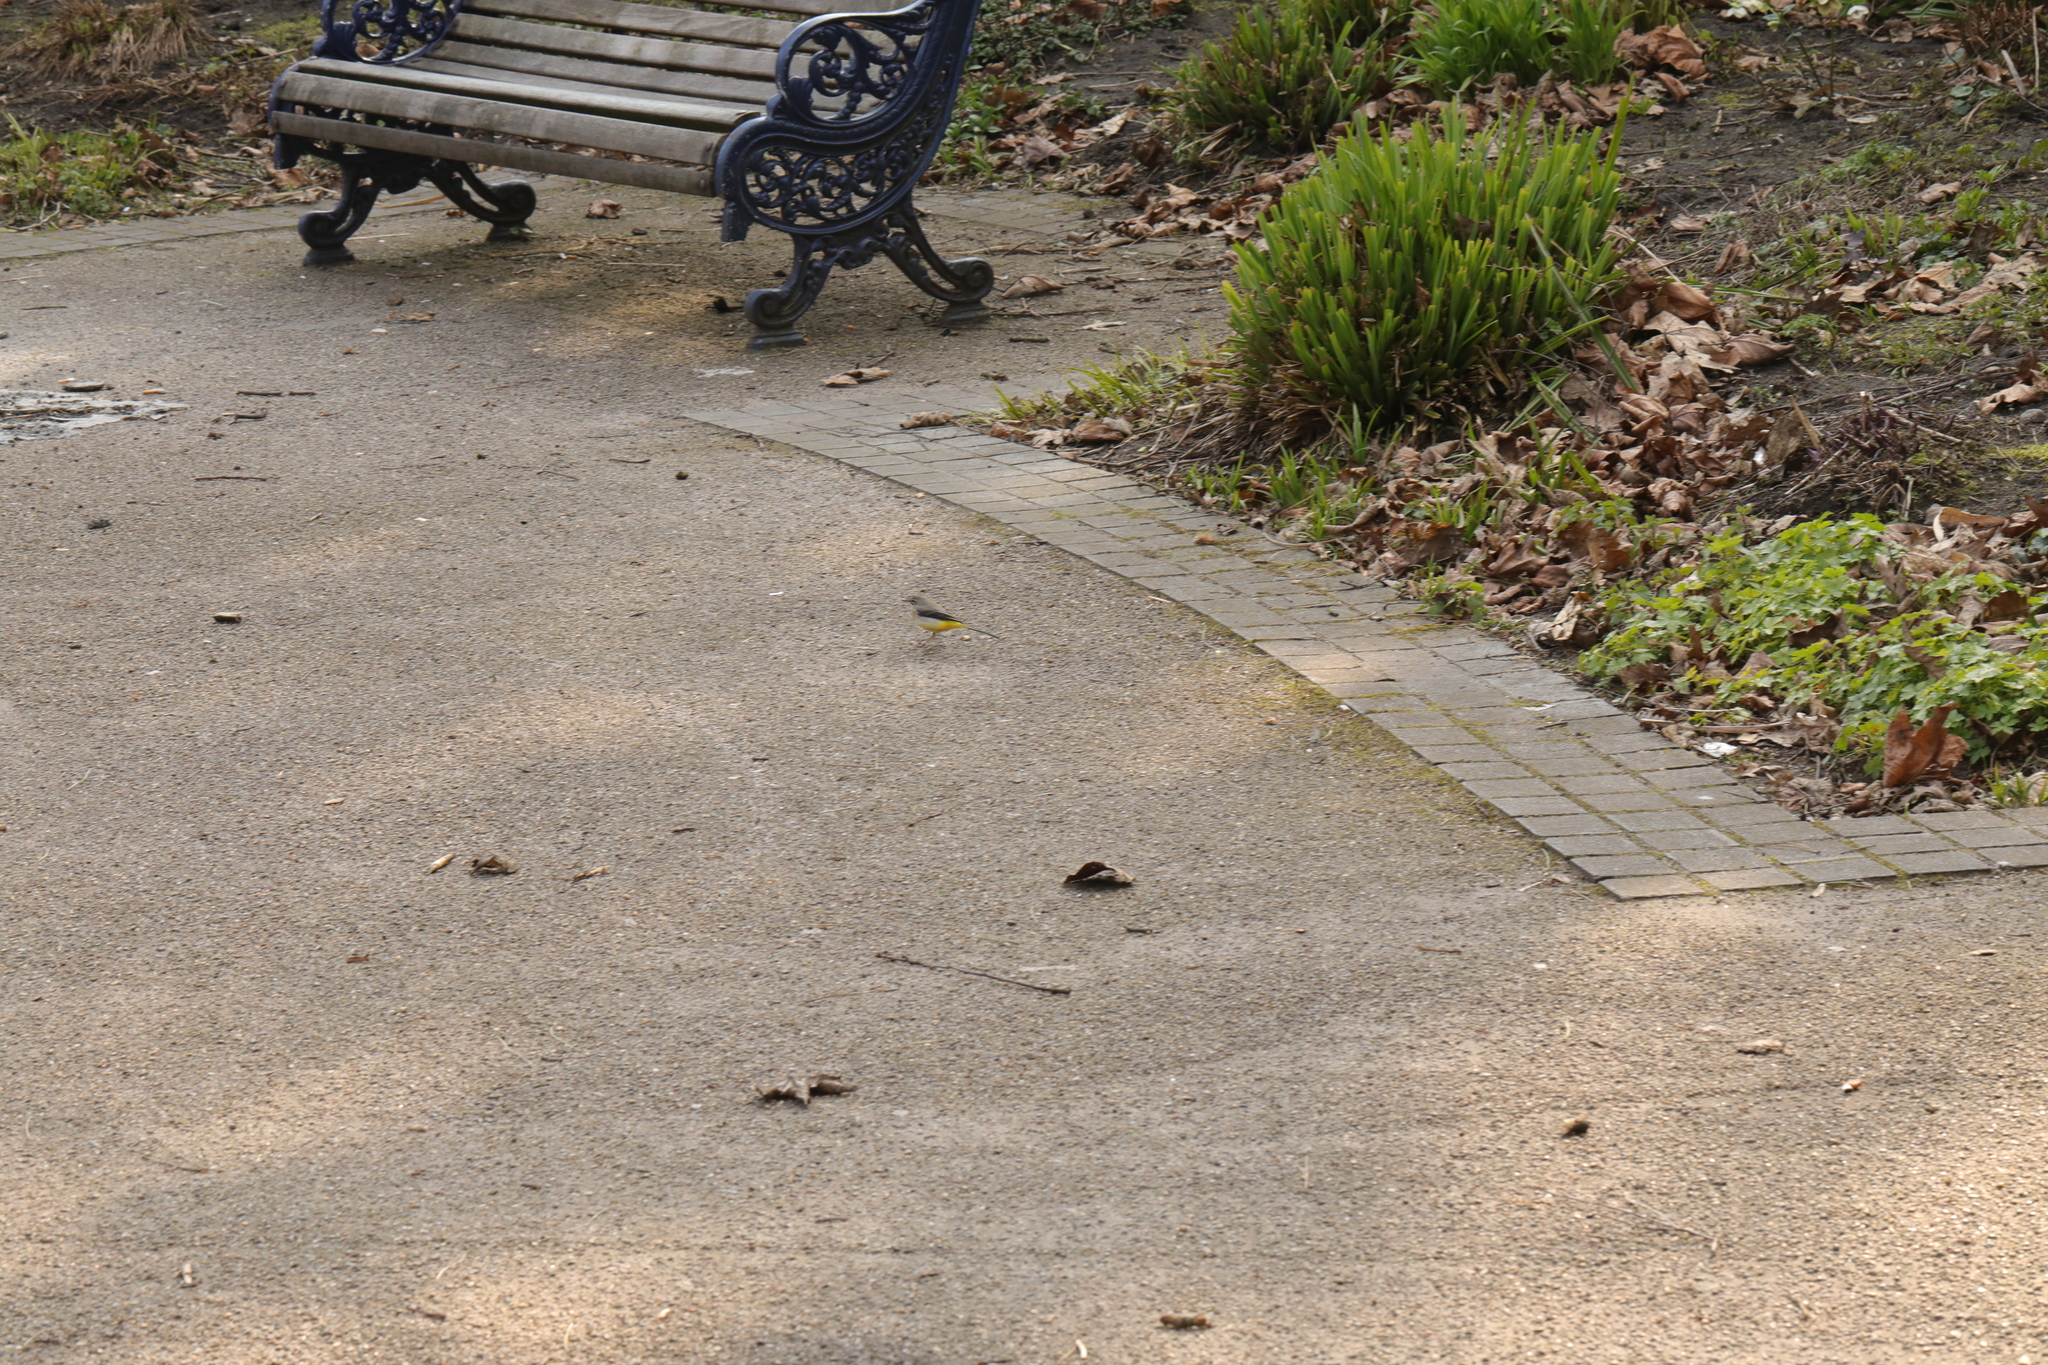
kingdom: Animalia
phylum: Chordata
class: Aves
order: Passeriformes
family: Motacillidae
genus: Motacilla
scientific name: Motacilla cinerea
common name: Grey wagtail
